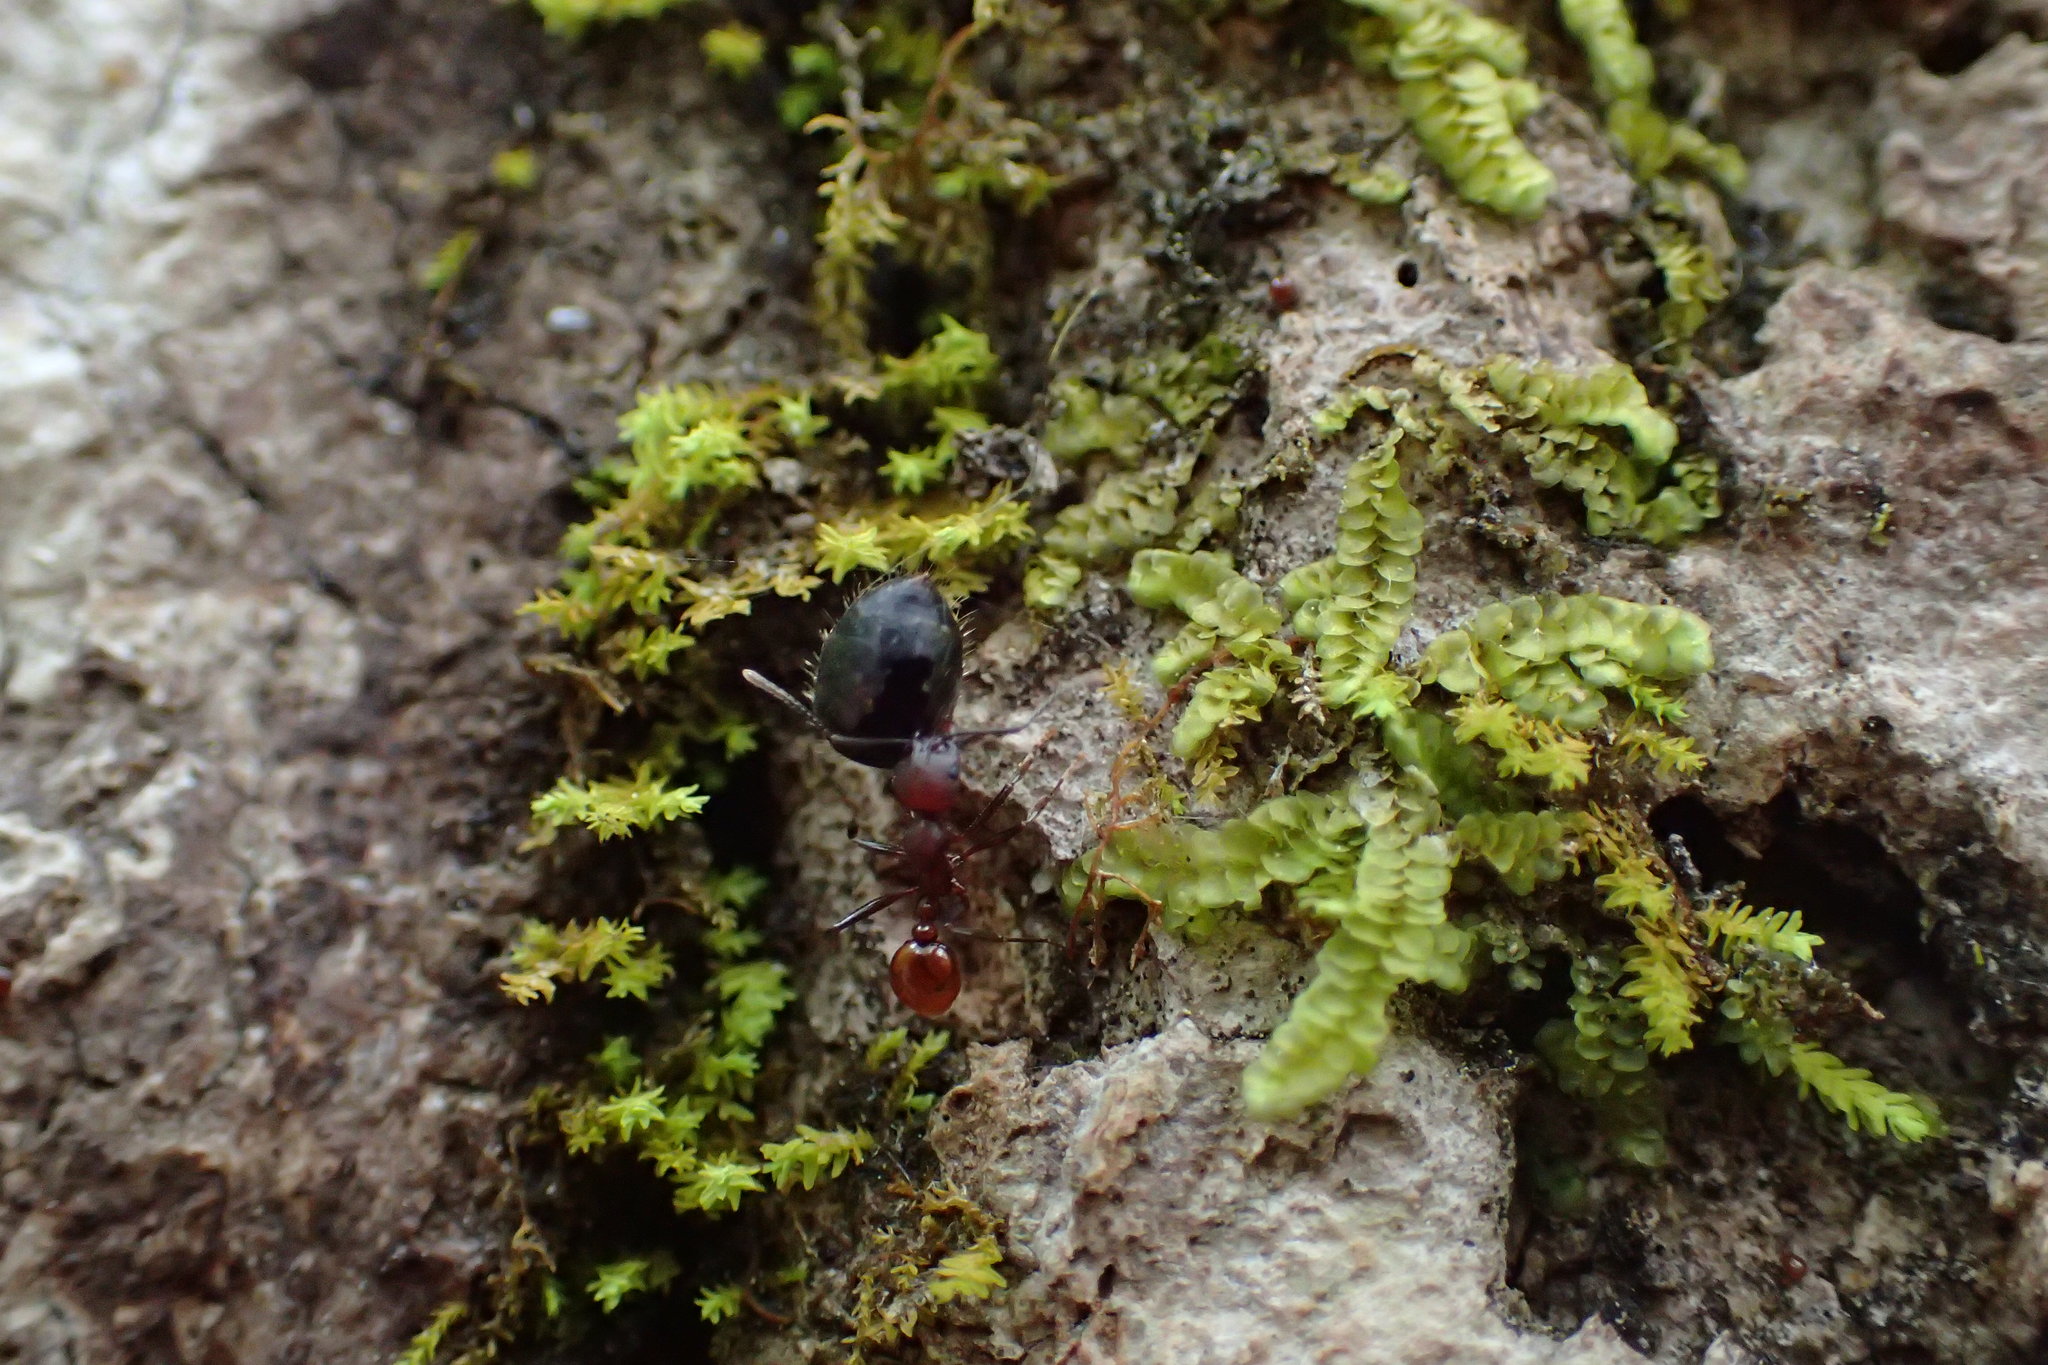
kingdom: Animalia
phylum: Arthropoda
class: Insecta
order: Hymenoptera
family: Formicidae
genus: Aphaenogaster
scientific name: Aphaenogaster tennesseensis
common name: Tennessee thread-waisted ant
